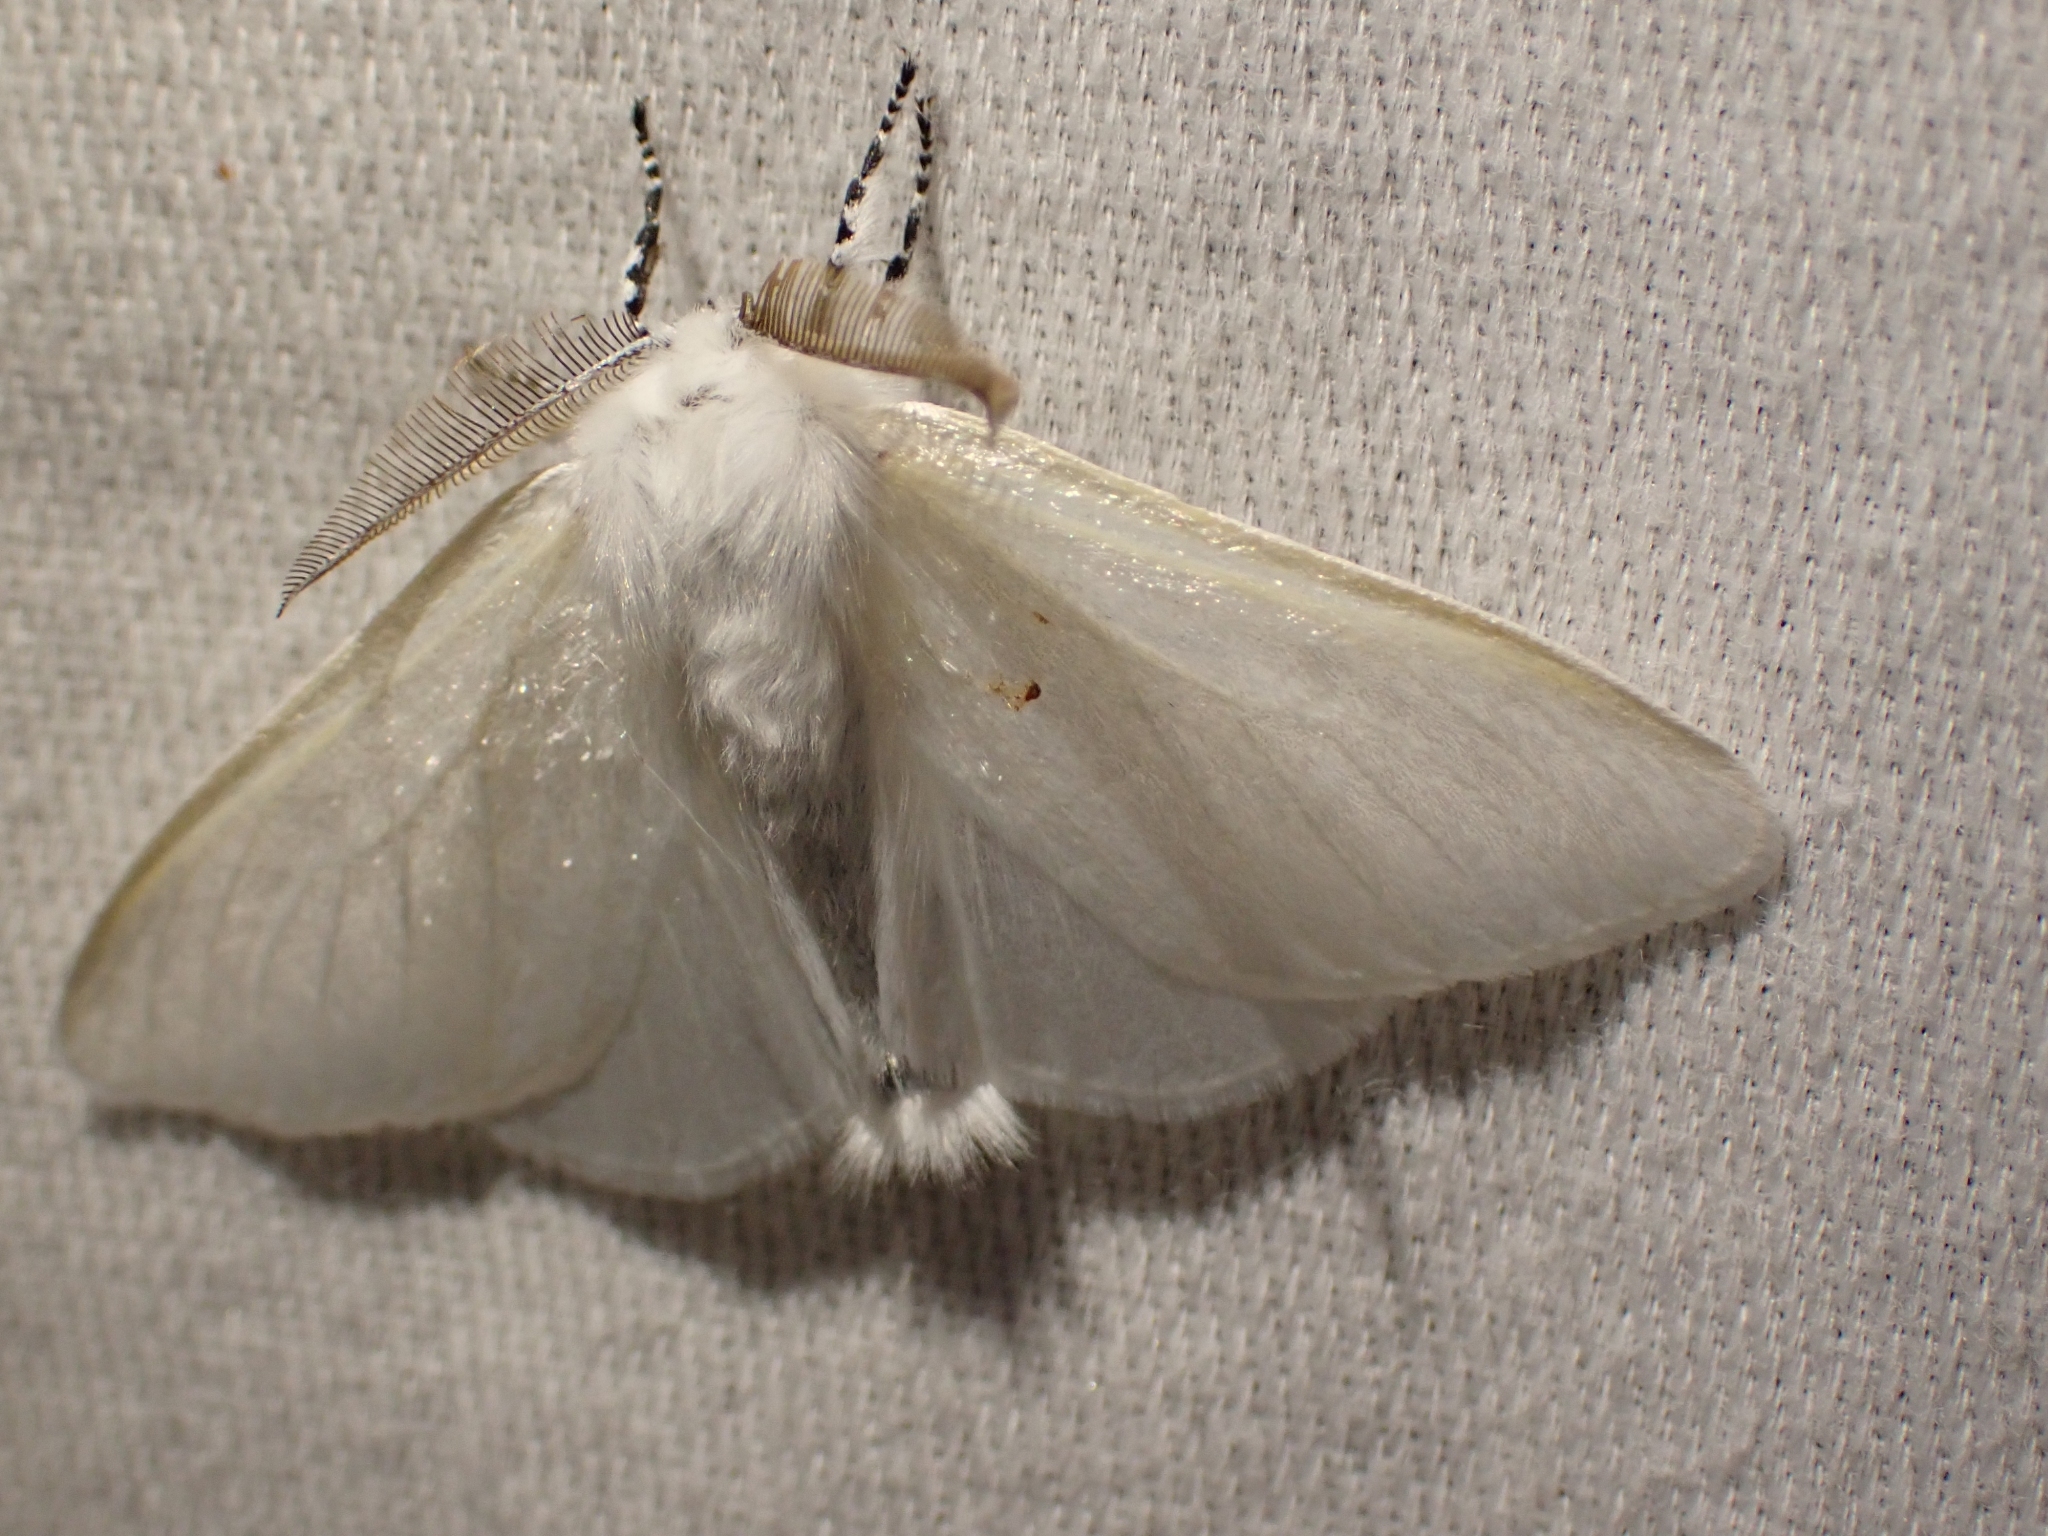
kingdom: Animalia
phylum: Arthropoda
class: Insecta
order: Lepidoptera
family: Erebidae
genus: Leucoma
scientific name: Leucoma salicis
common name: White satin moth
